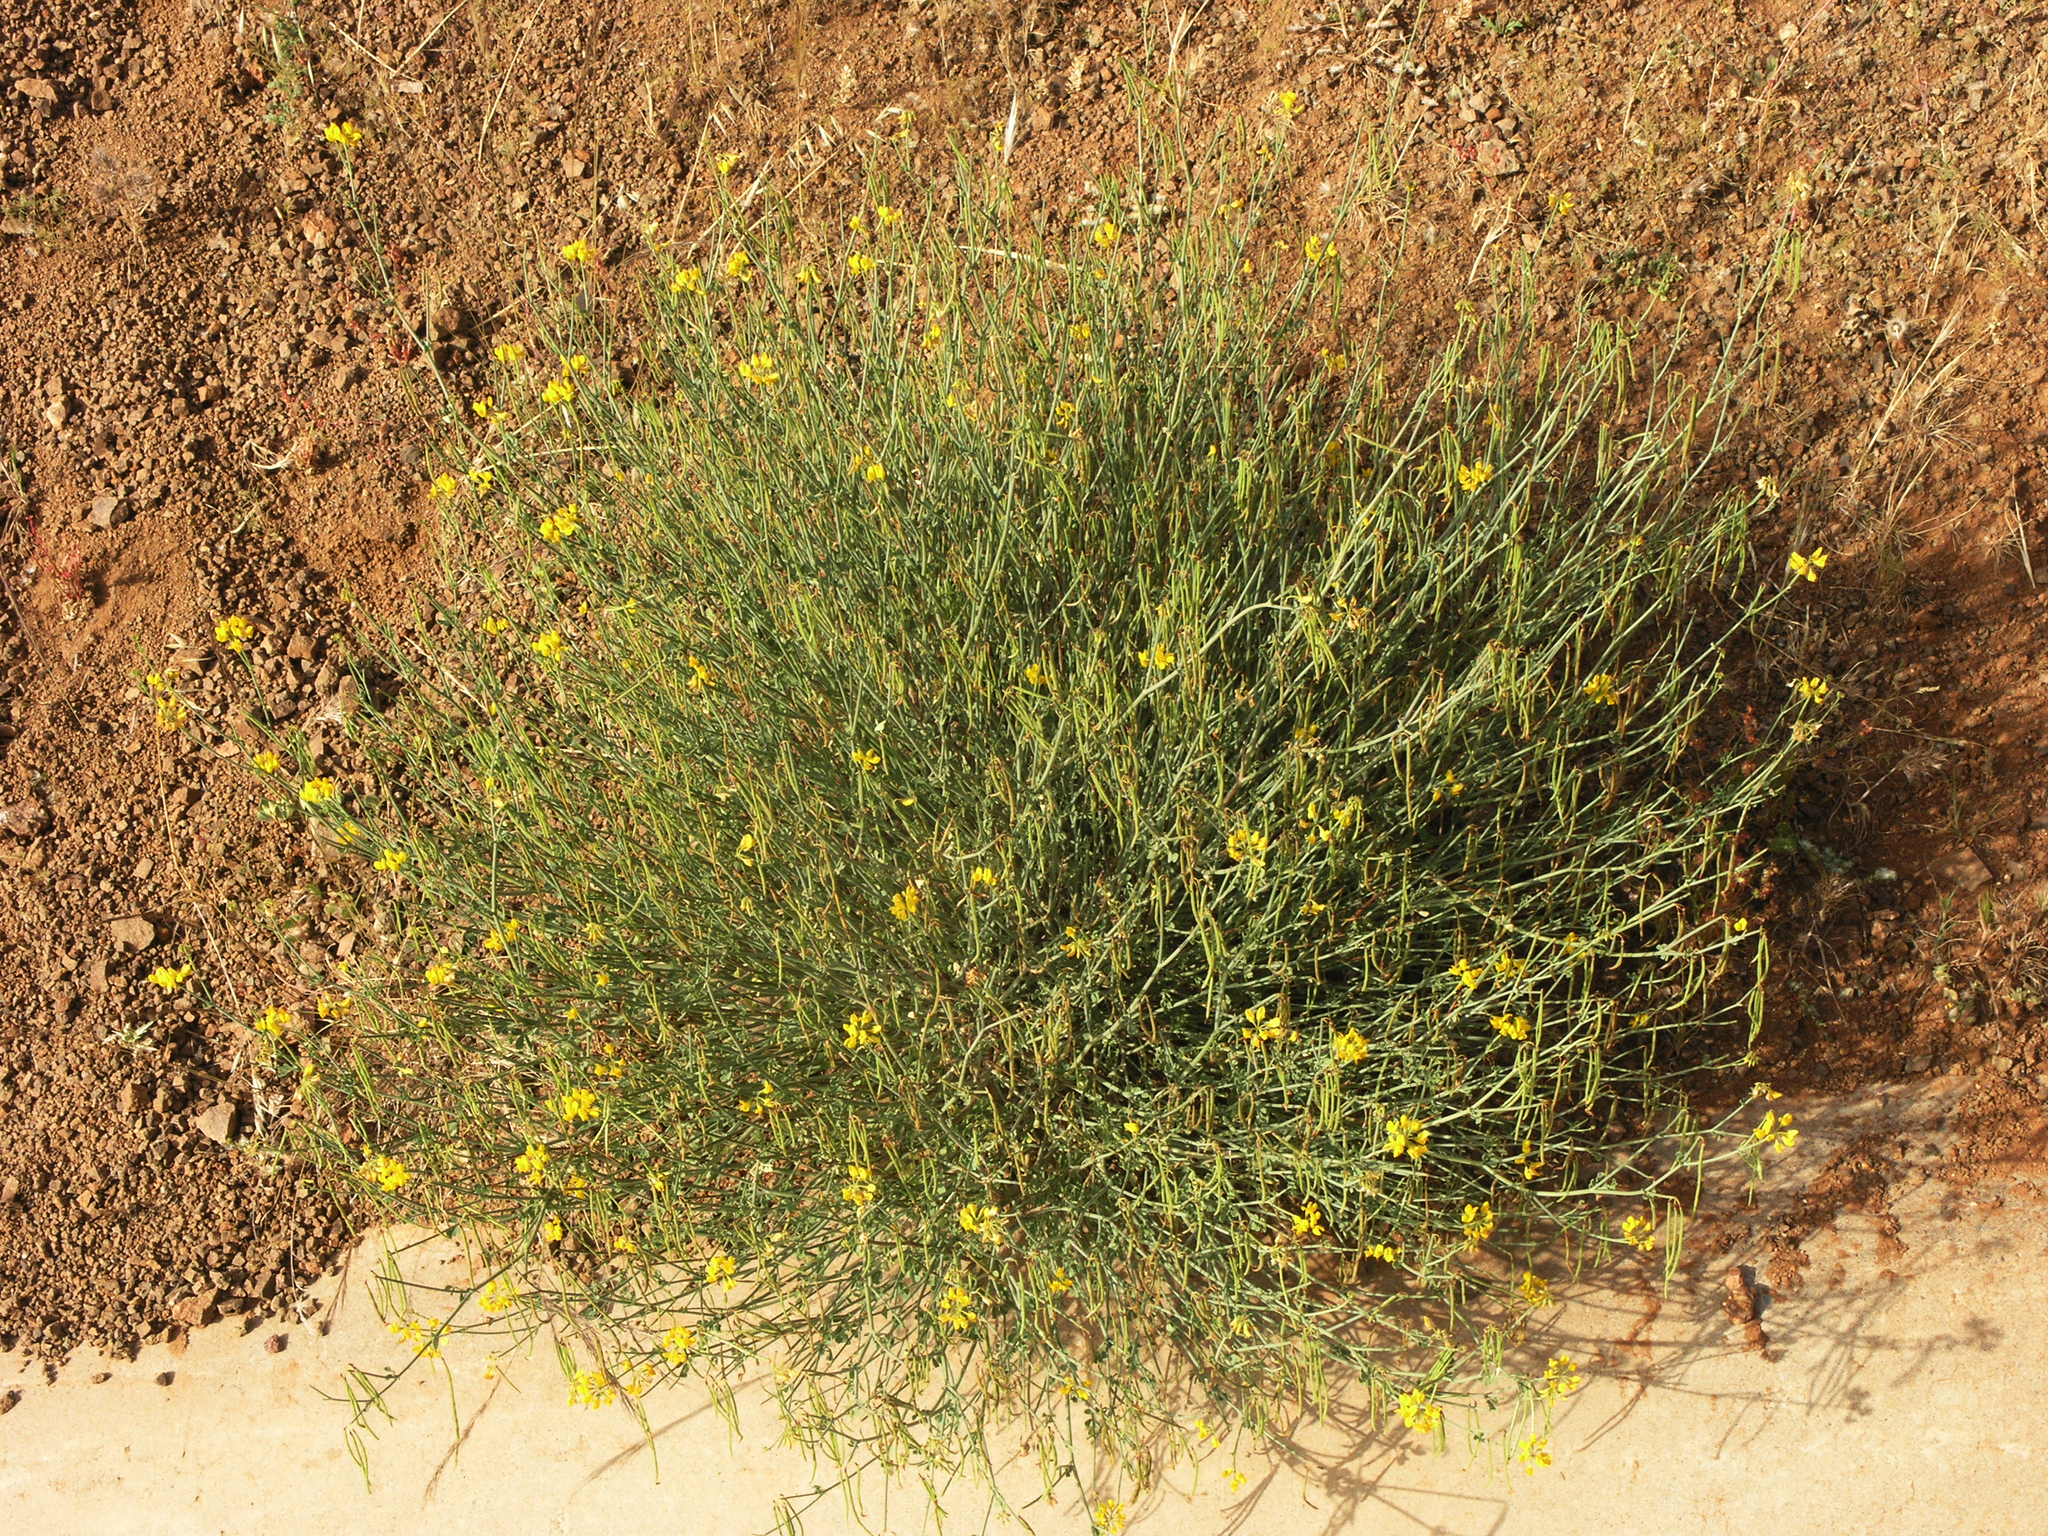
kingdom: Plantae
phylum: Tracheophyta
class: Magnoliopsida
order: Fabales
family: Fabaceae
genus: Coronilla
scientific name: Coronilla ramosissima
